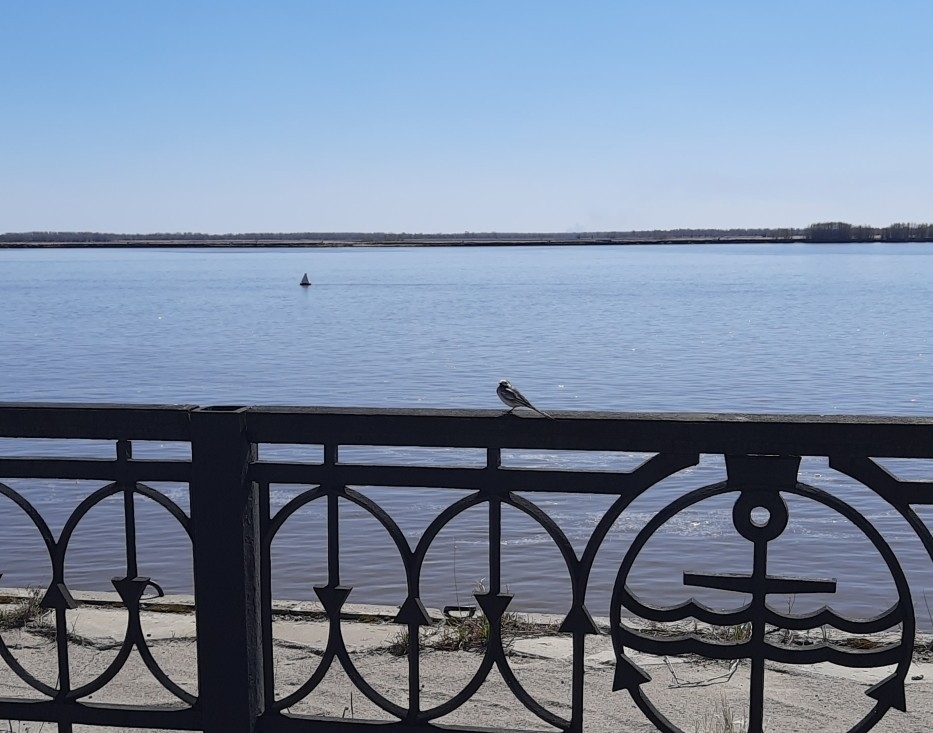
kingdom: Animalia
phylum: Chordata
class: Aves
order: Passeriformes
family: Motacillidae
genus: Motacilla
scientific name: Motacilla alba
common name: White wagtail
